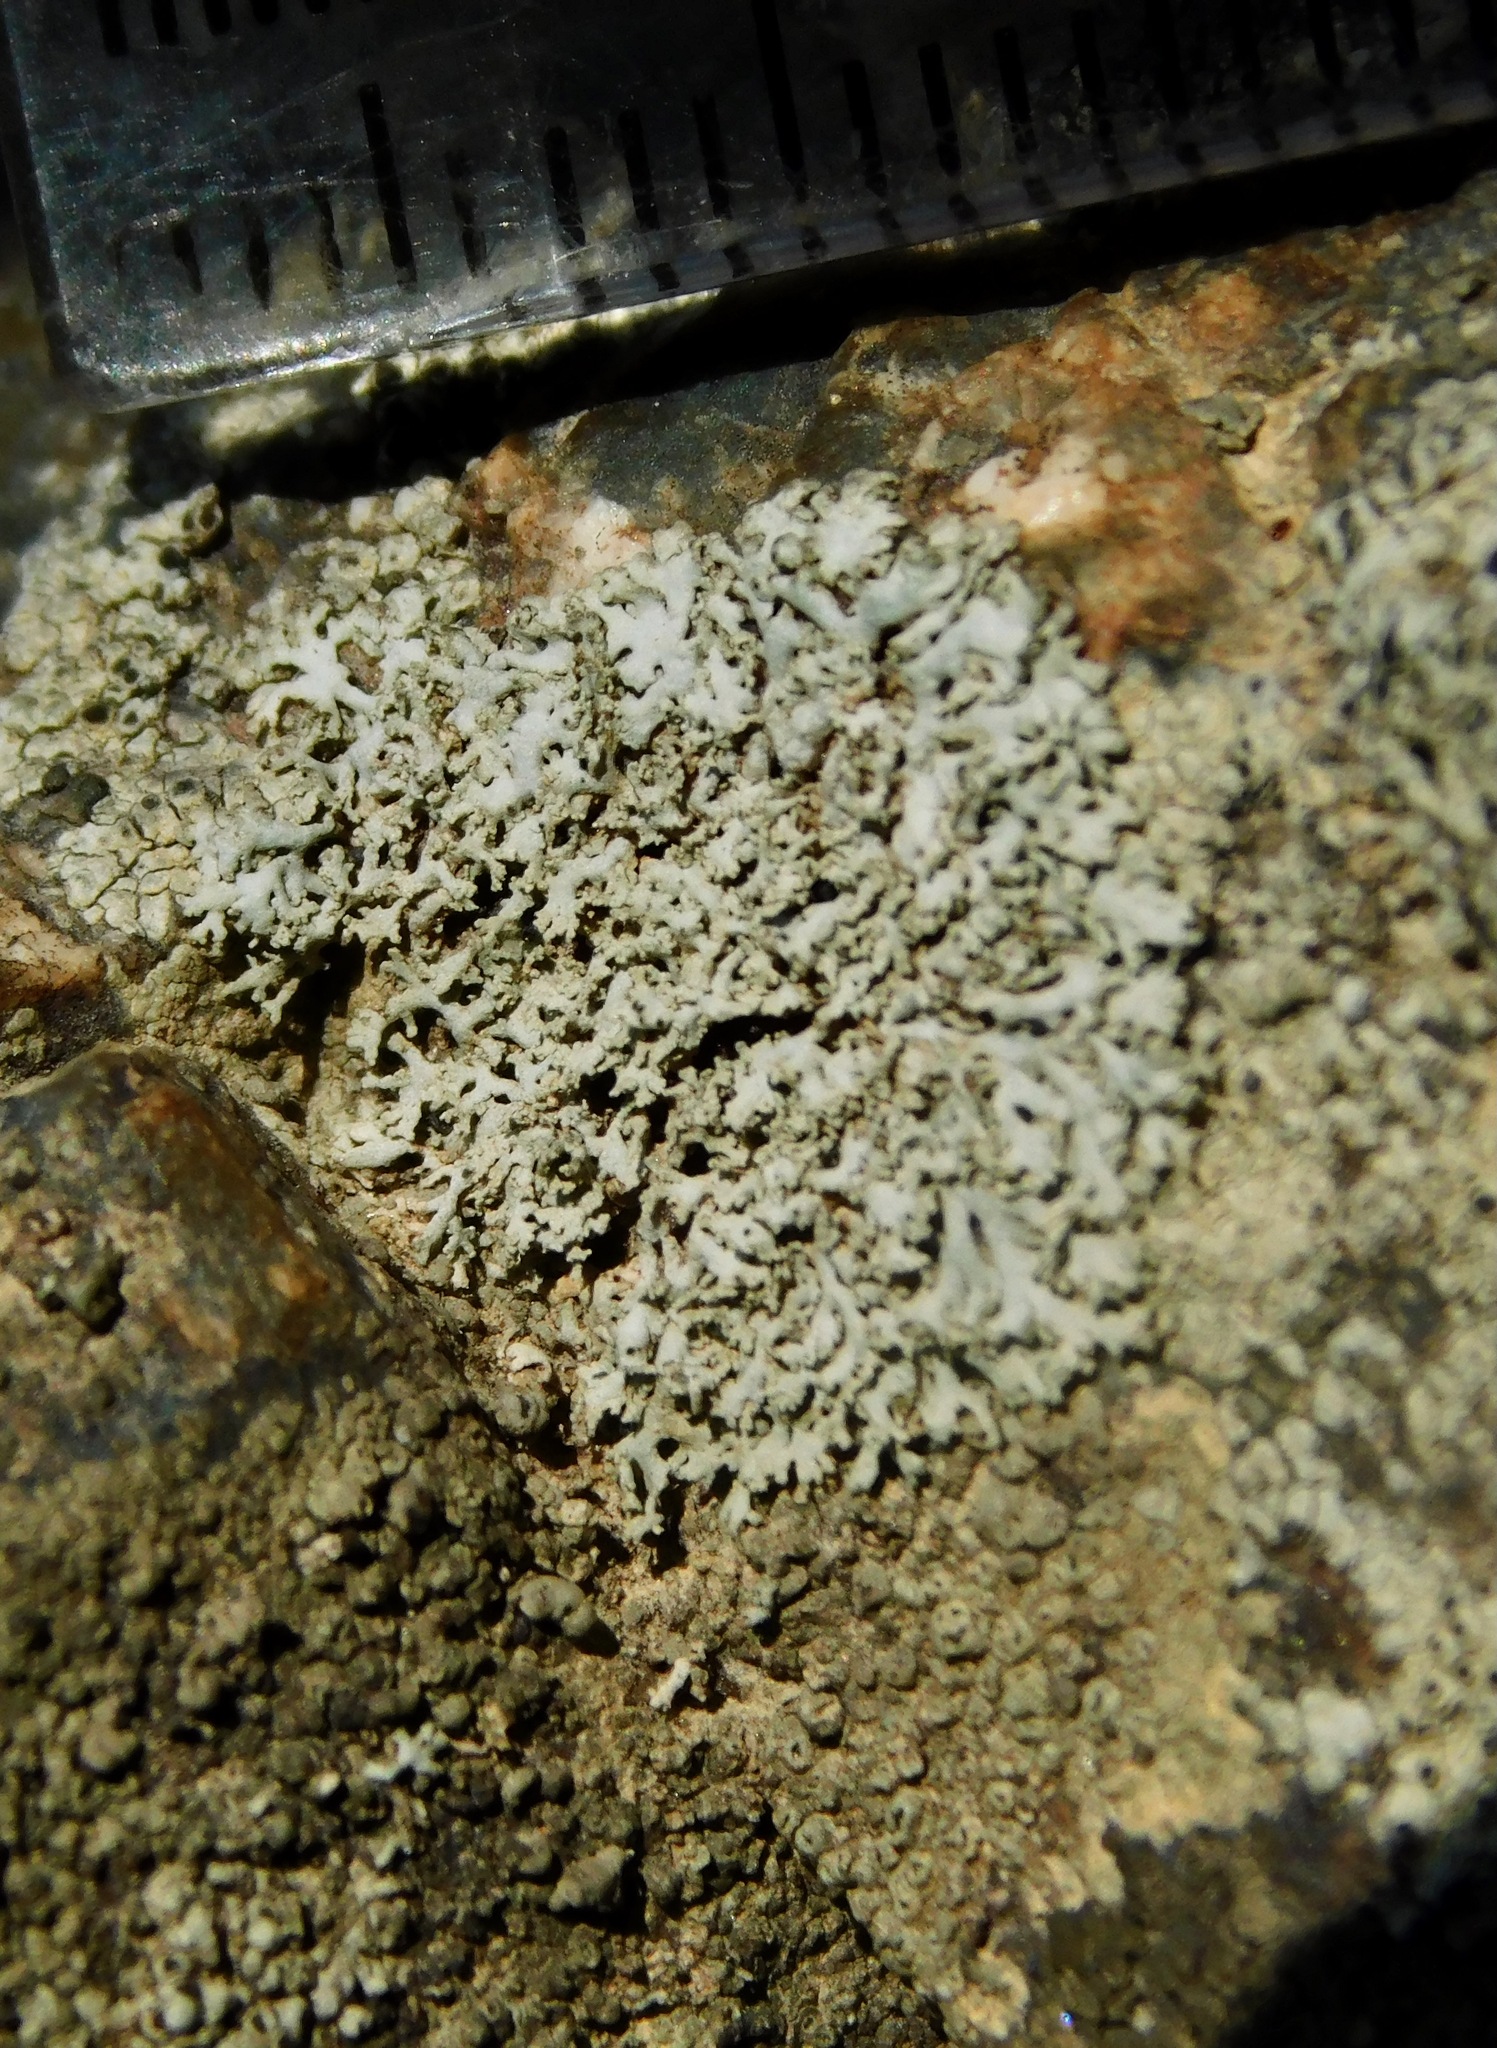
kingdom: Fungi
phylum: Ascomycota
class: Lecanoromycetes
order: Caliciales
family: Physciaceae
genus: Physcia
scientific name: Physcia thomsoniana
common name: Thomson's rosette lichen
